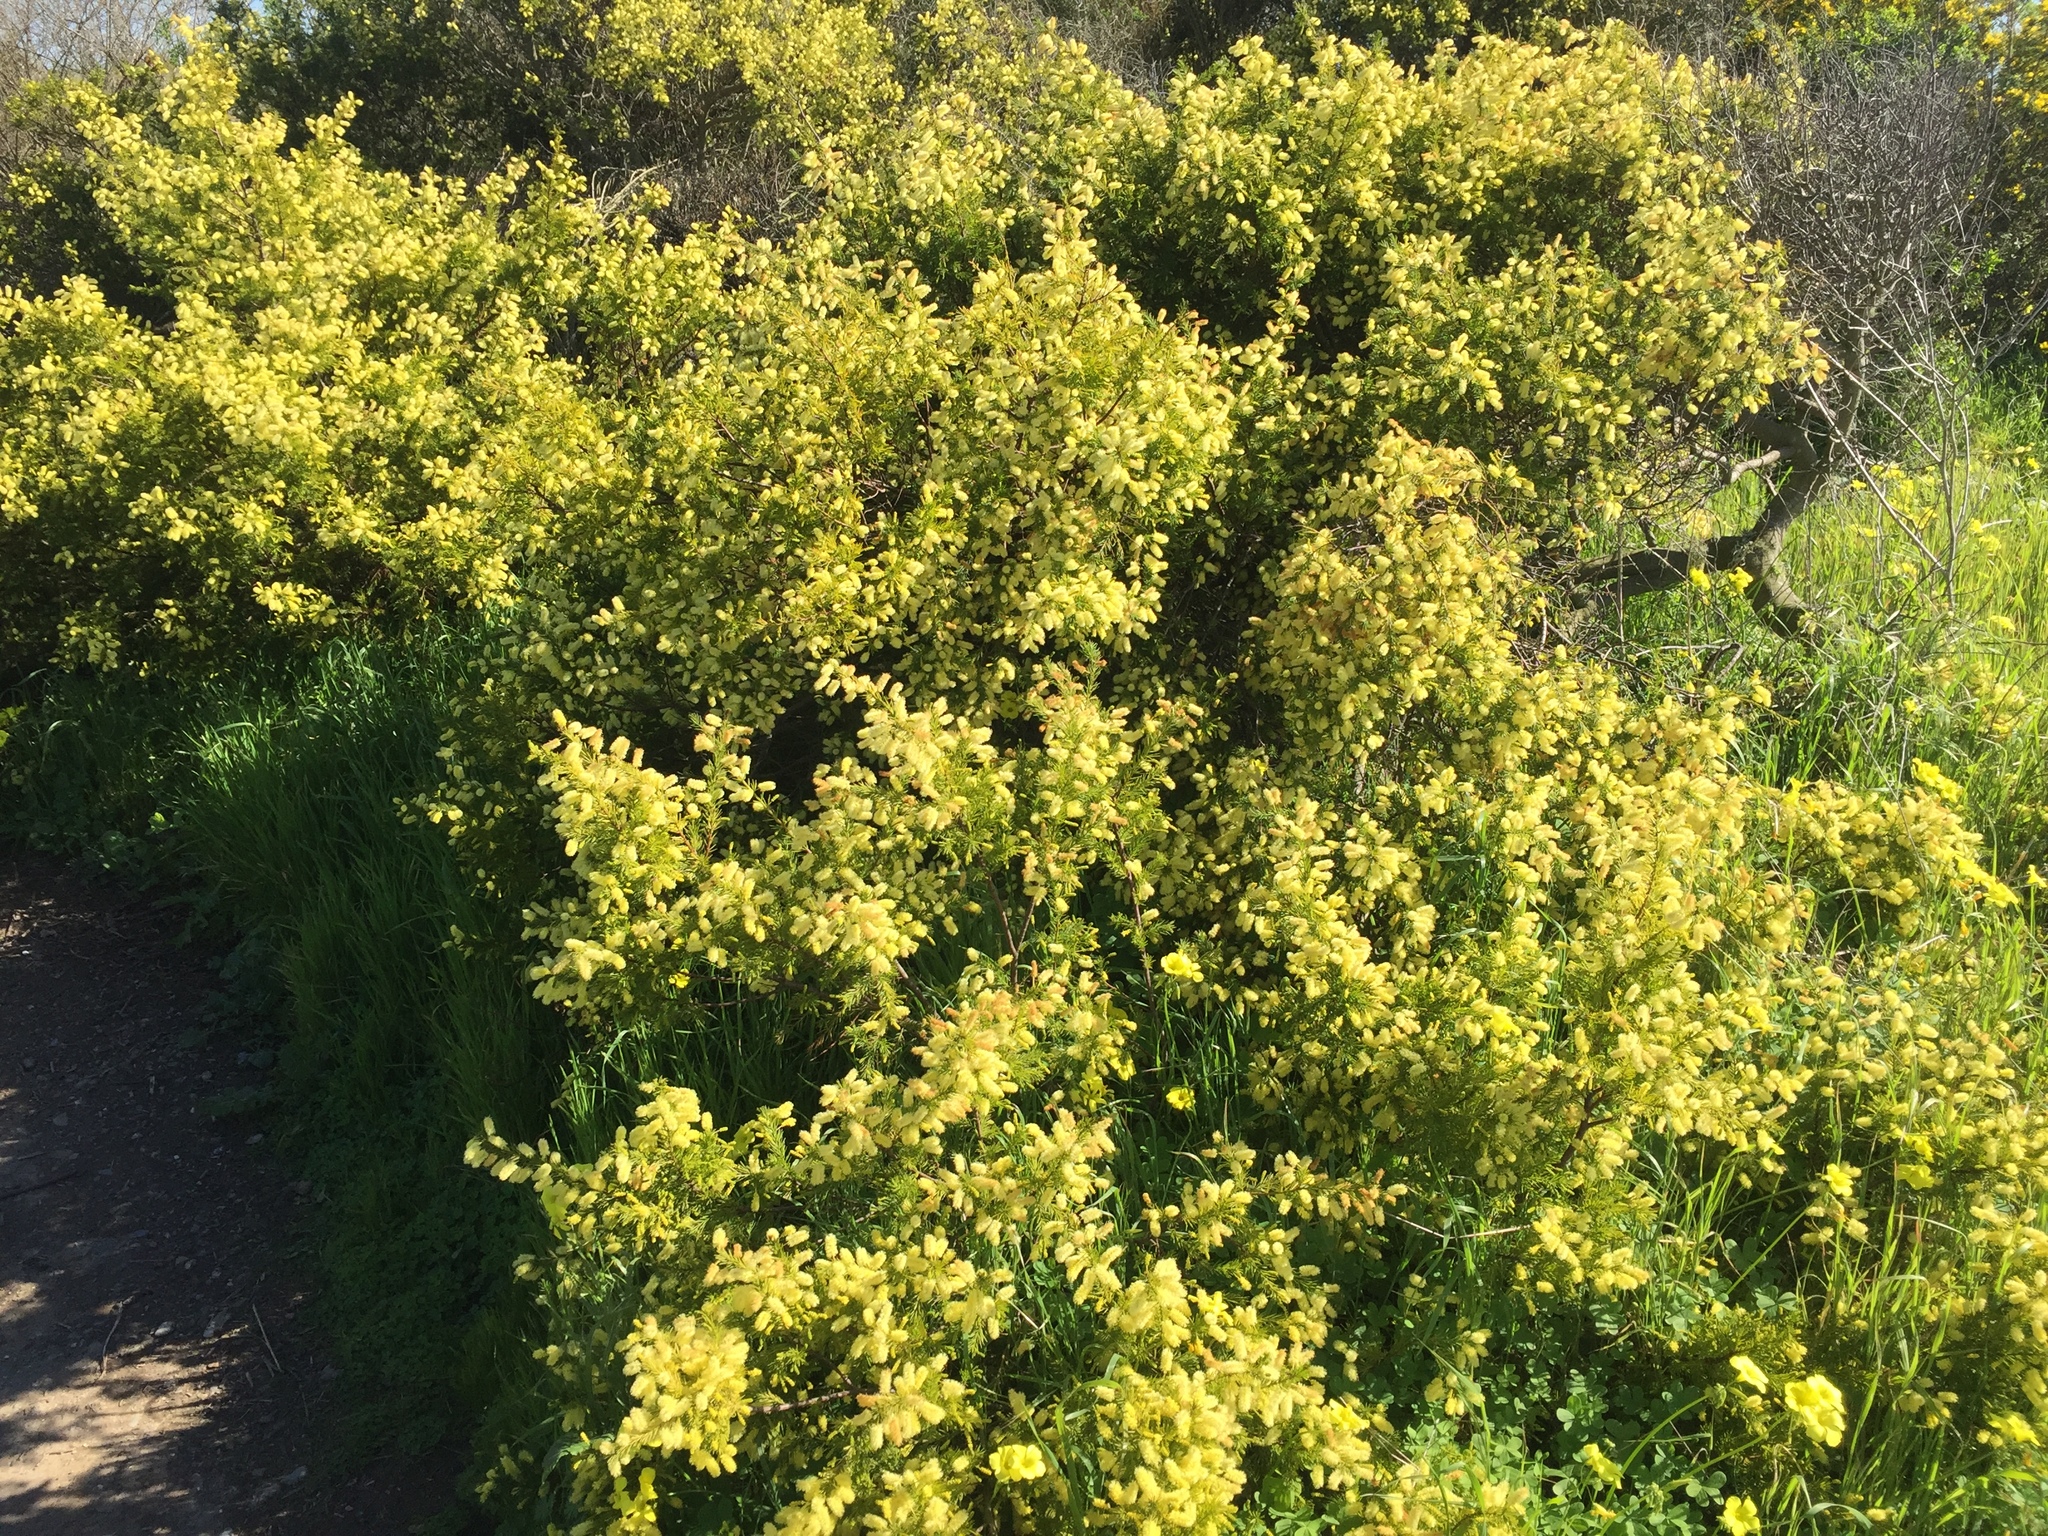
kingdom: Plantae
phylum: Tracheophyta
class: Magnoliopsida
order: Fabales
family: Fabaceae
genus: Acacia
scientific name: Acacia verticillata
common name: Prickly moses
